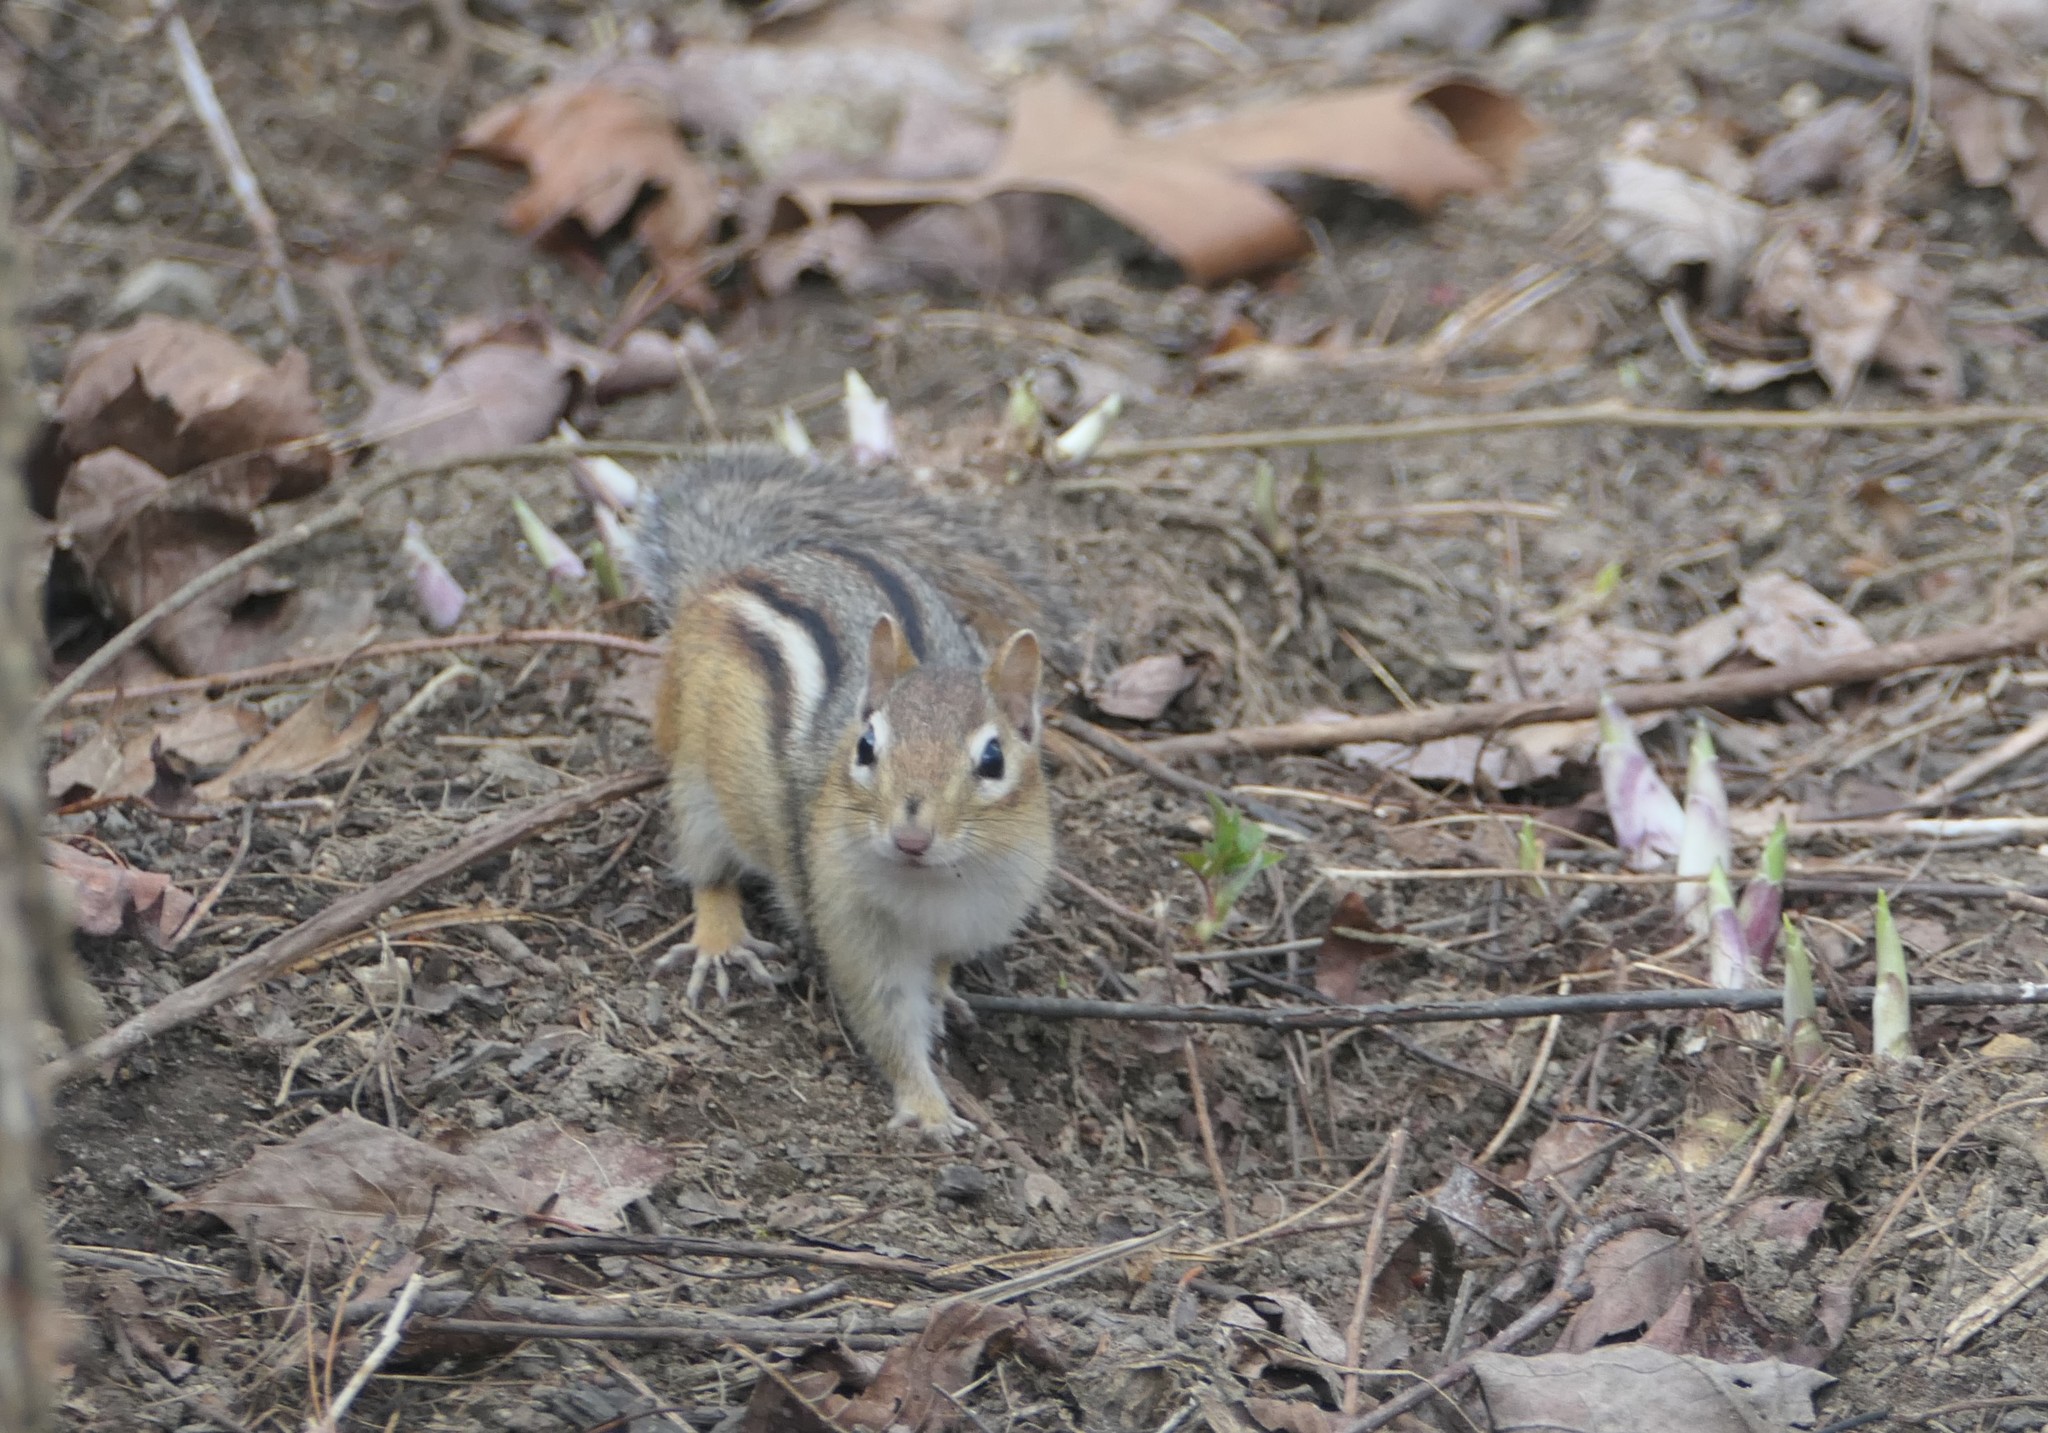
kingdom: Animalia
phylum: Chordata
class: Mammalia
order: Rodentia
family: Sciuridae
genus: Tamias
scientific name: Tamias striatus
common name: Eastern chipmunk
